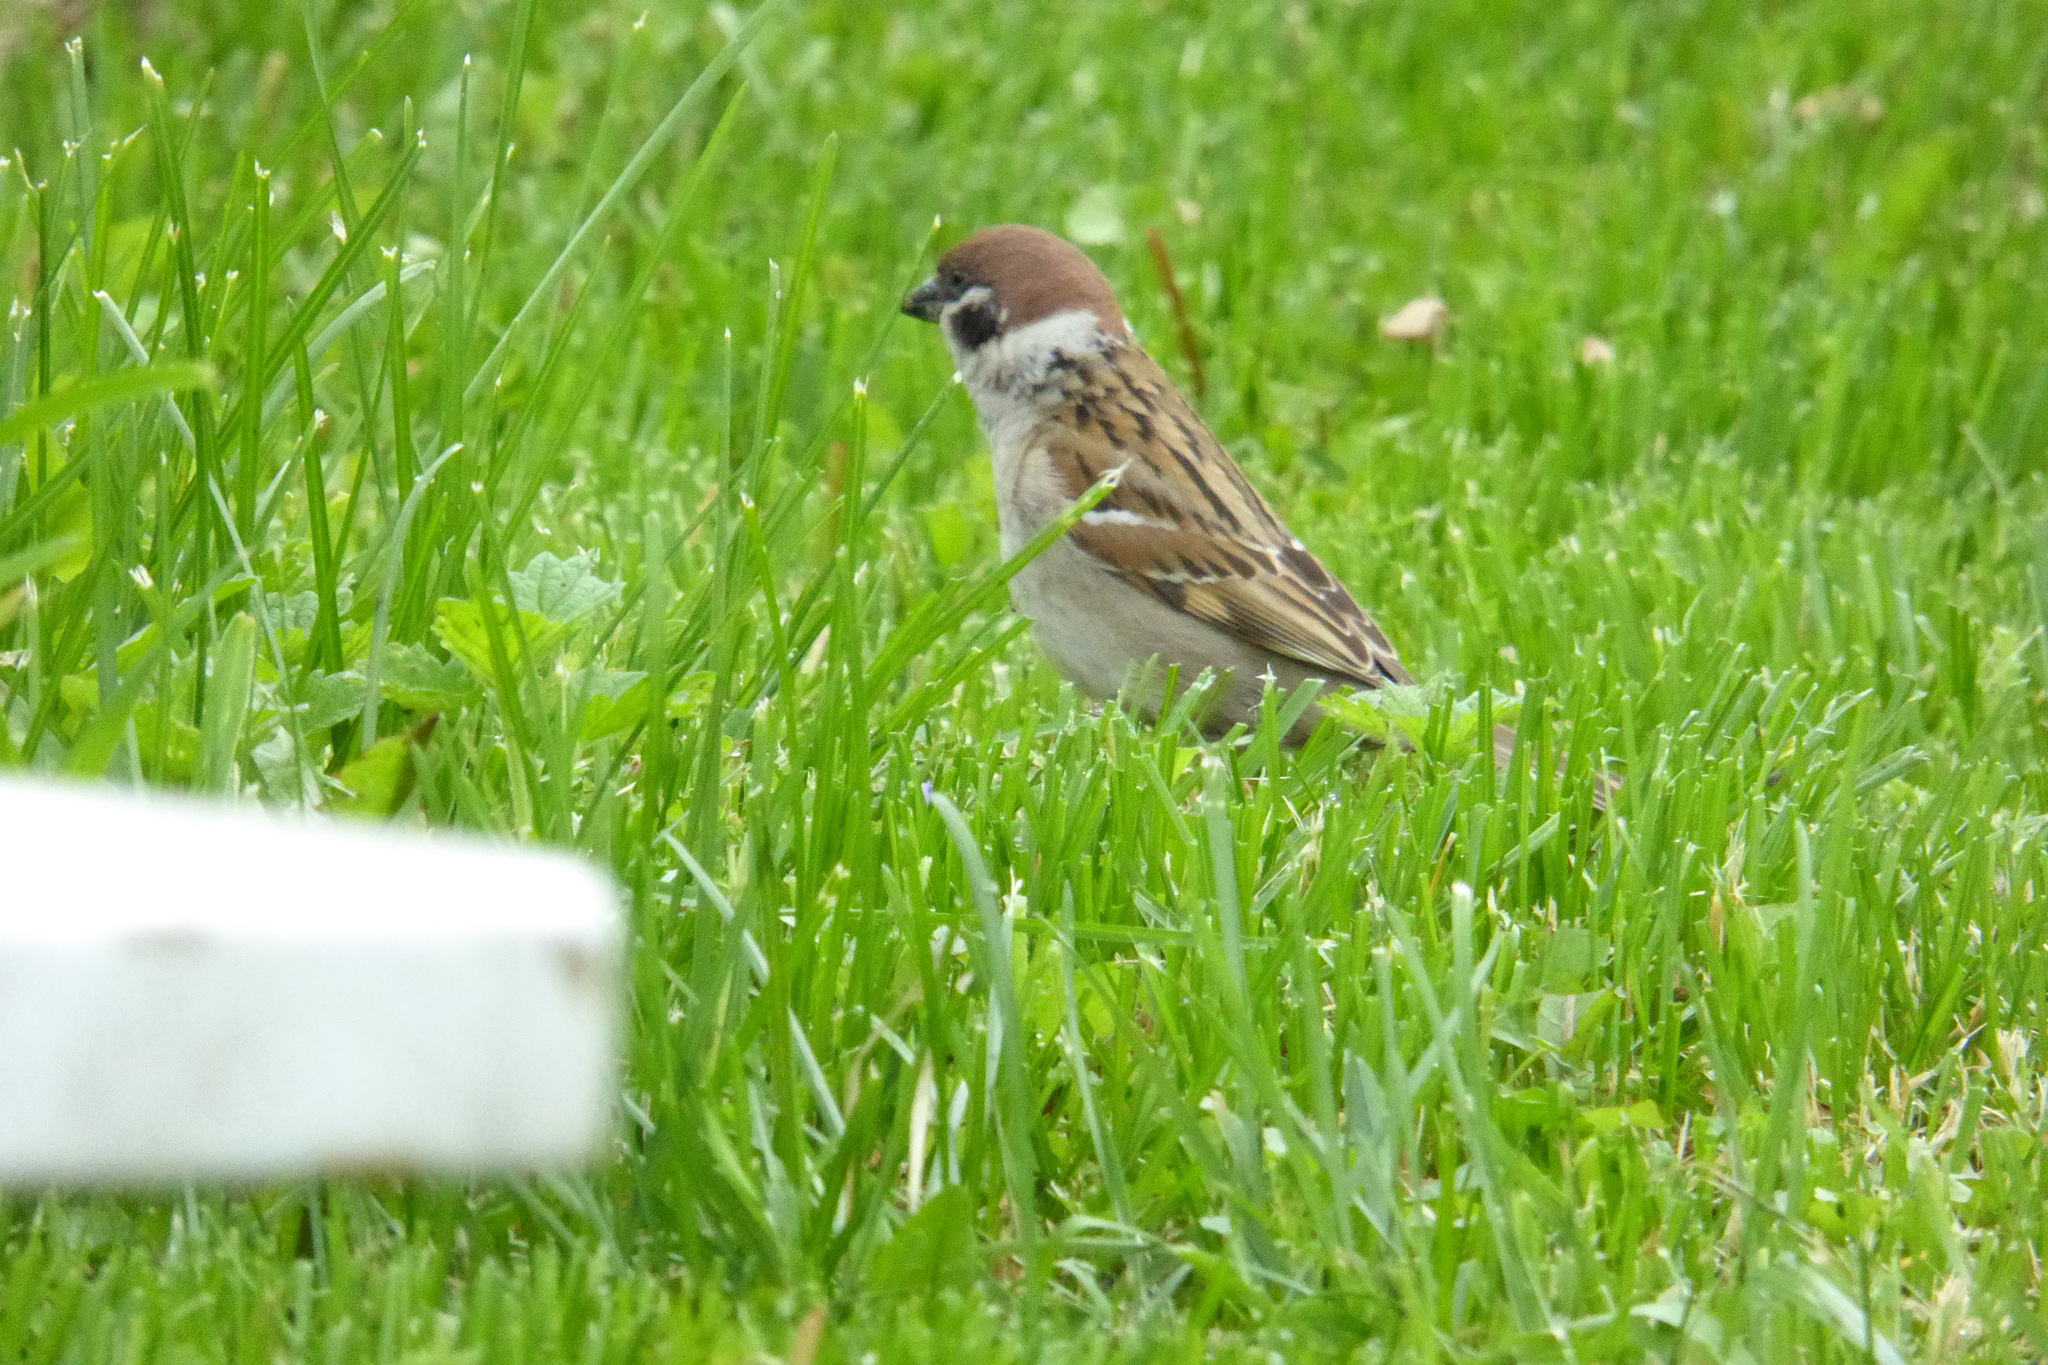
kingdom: Animalia
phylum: Chordata
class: Aves
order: Passeriformes
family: Passeridae
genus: Passer
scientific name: Passer montanus
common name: Eurasian tree sparrow
